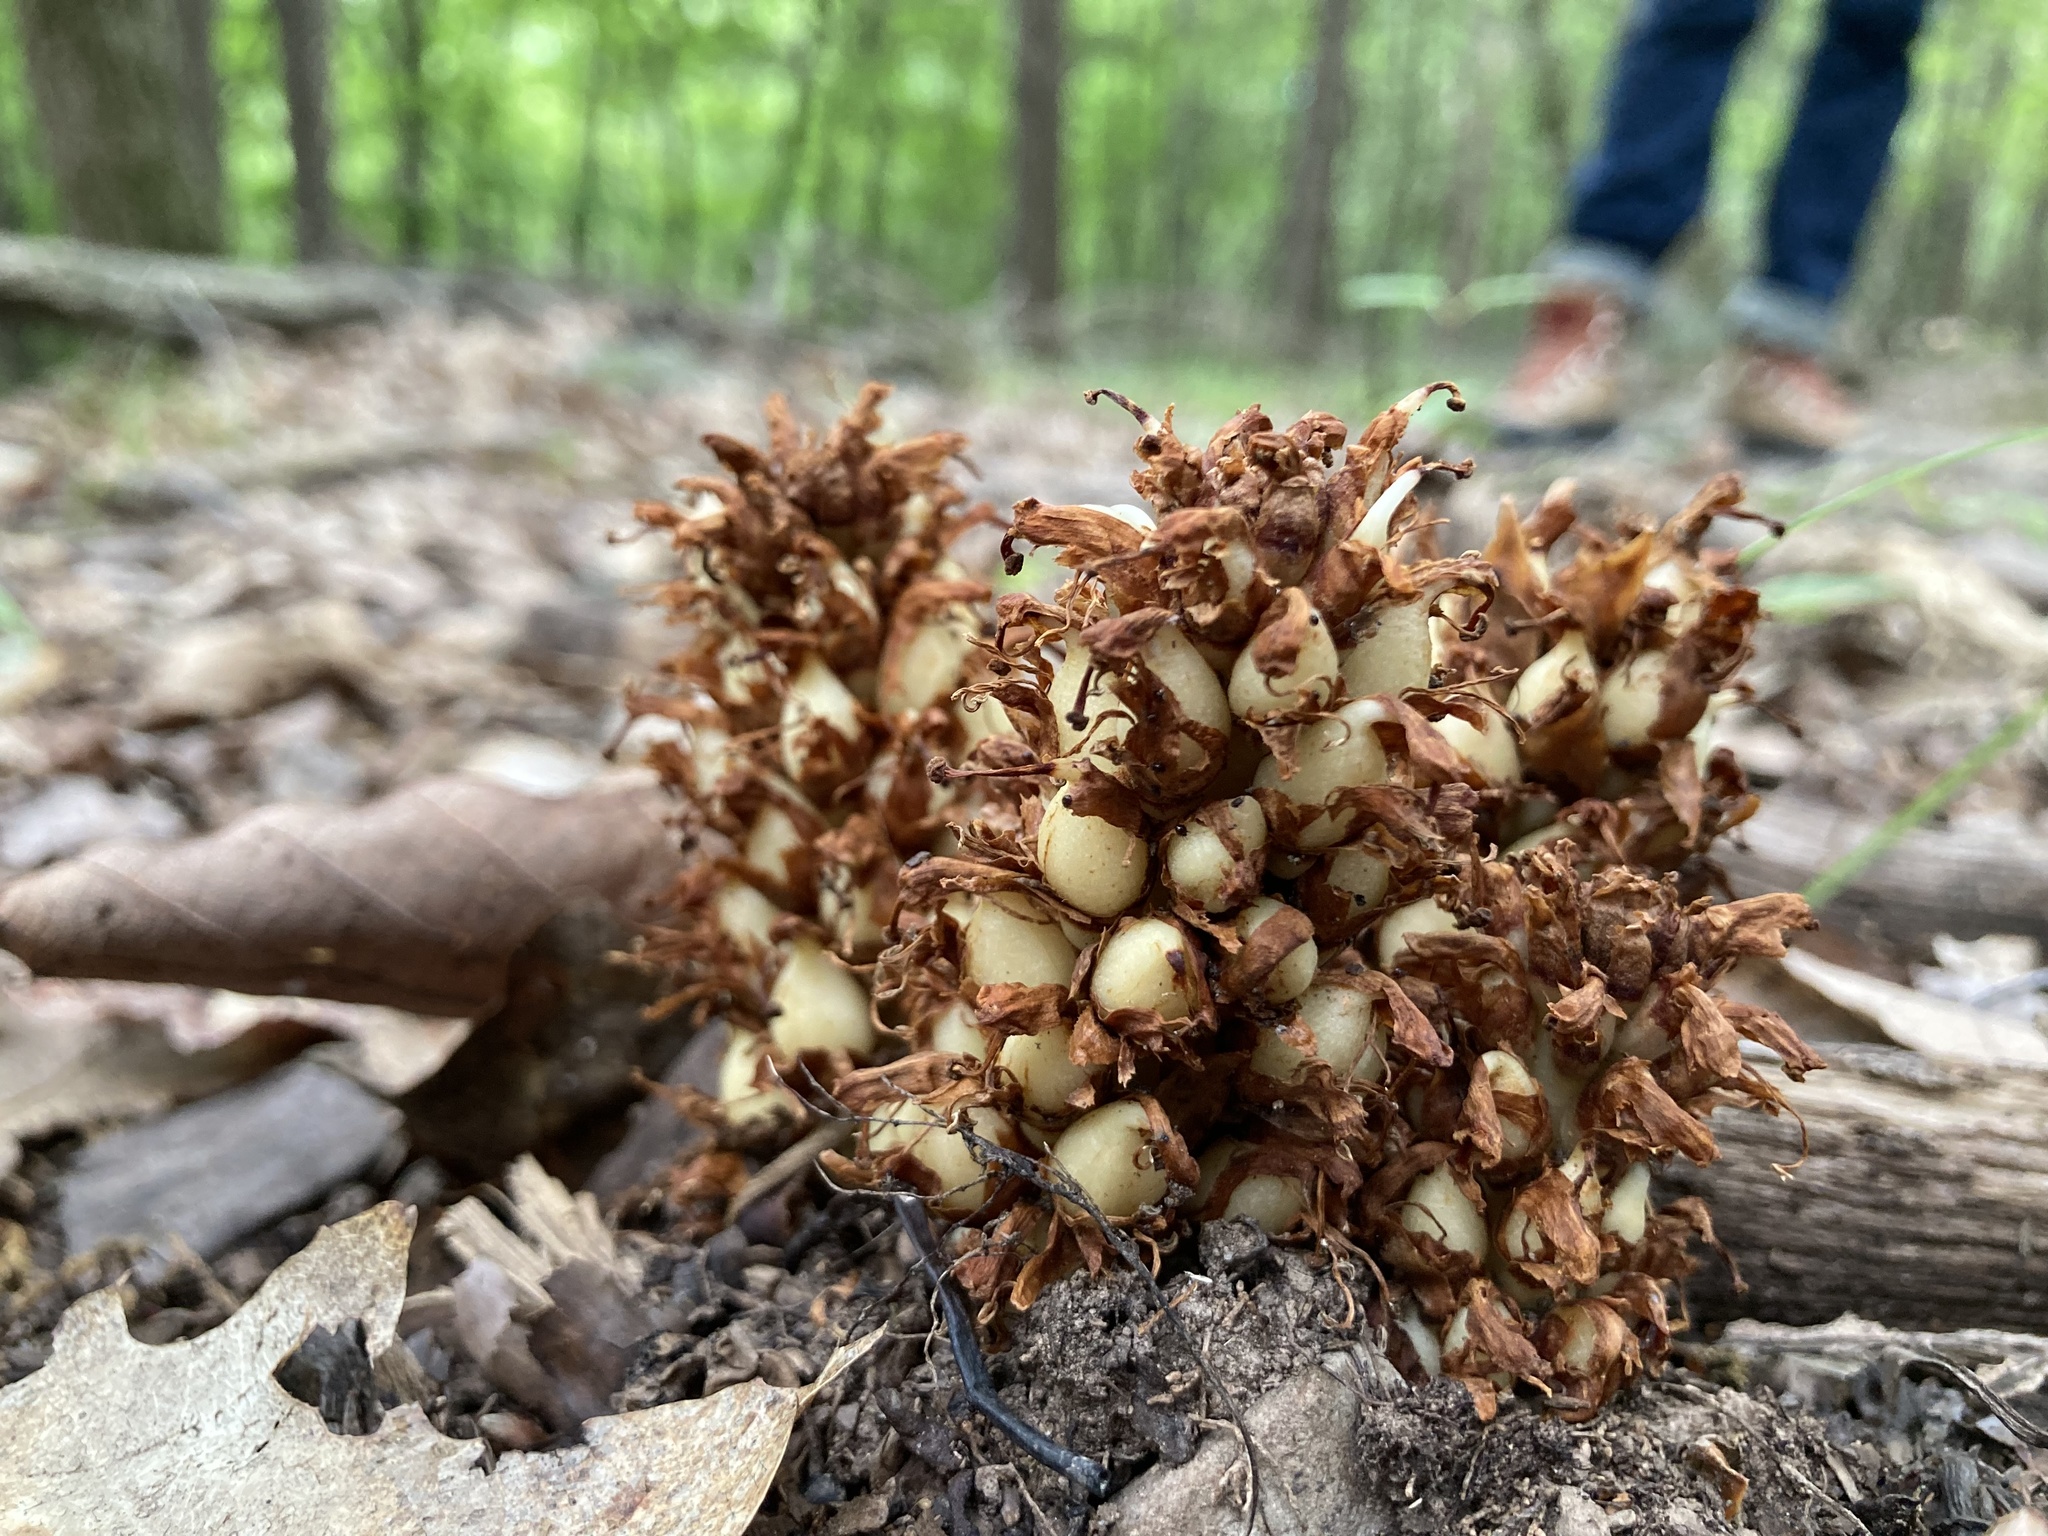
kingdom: Plantae
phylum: Tracheophyta
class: Magnoliopsida
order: Lamiales
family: Orobanchaceae
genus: Conopholis
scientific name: Conopholis americana
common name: American cancer-root
